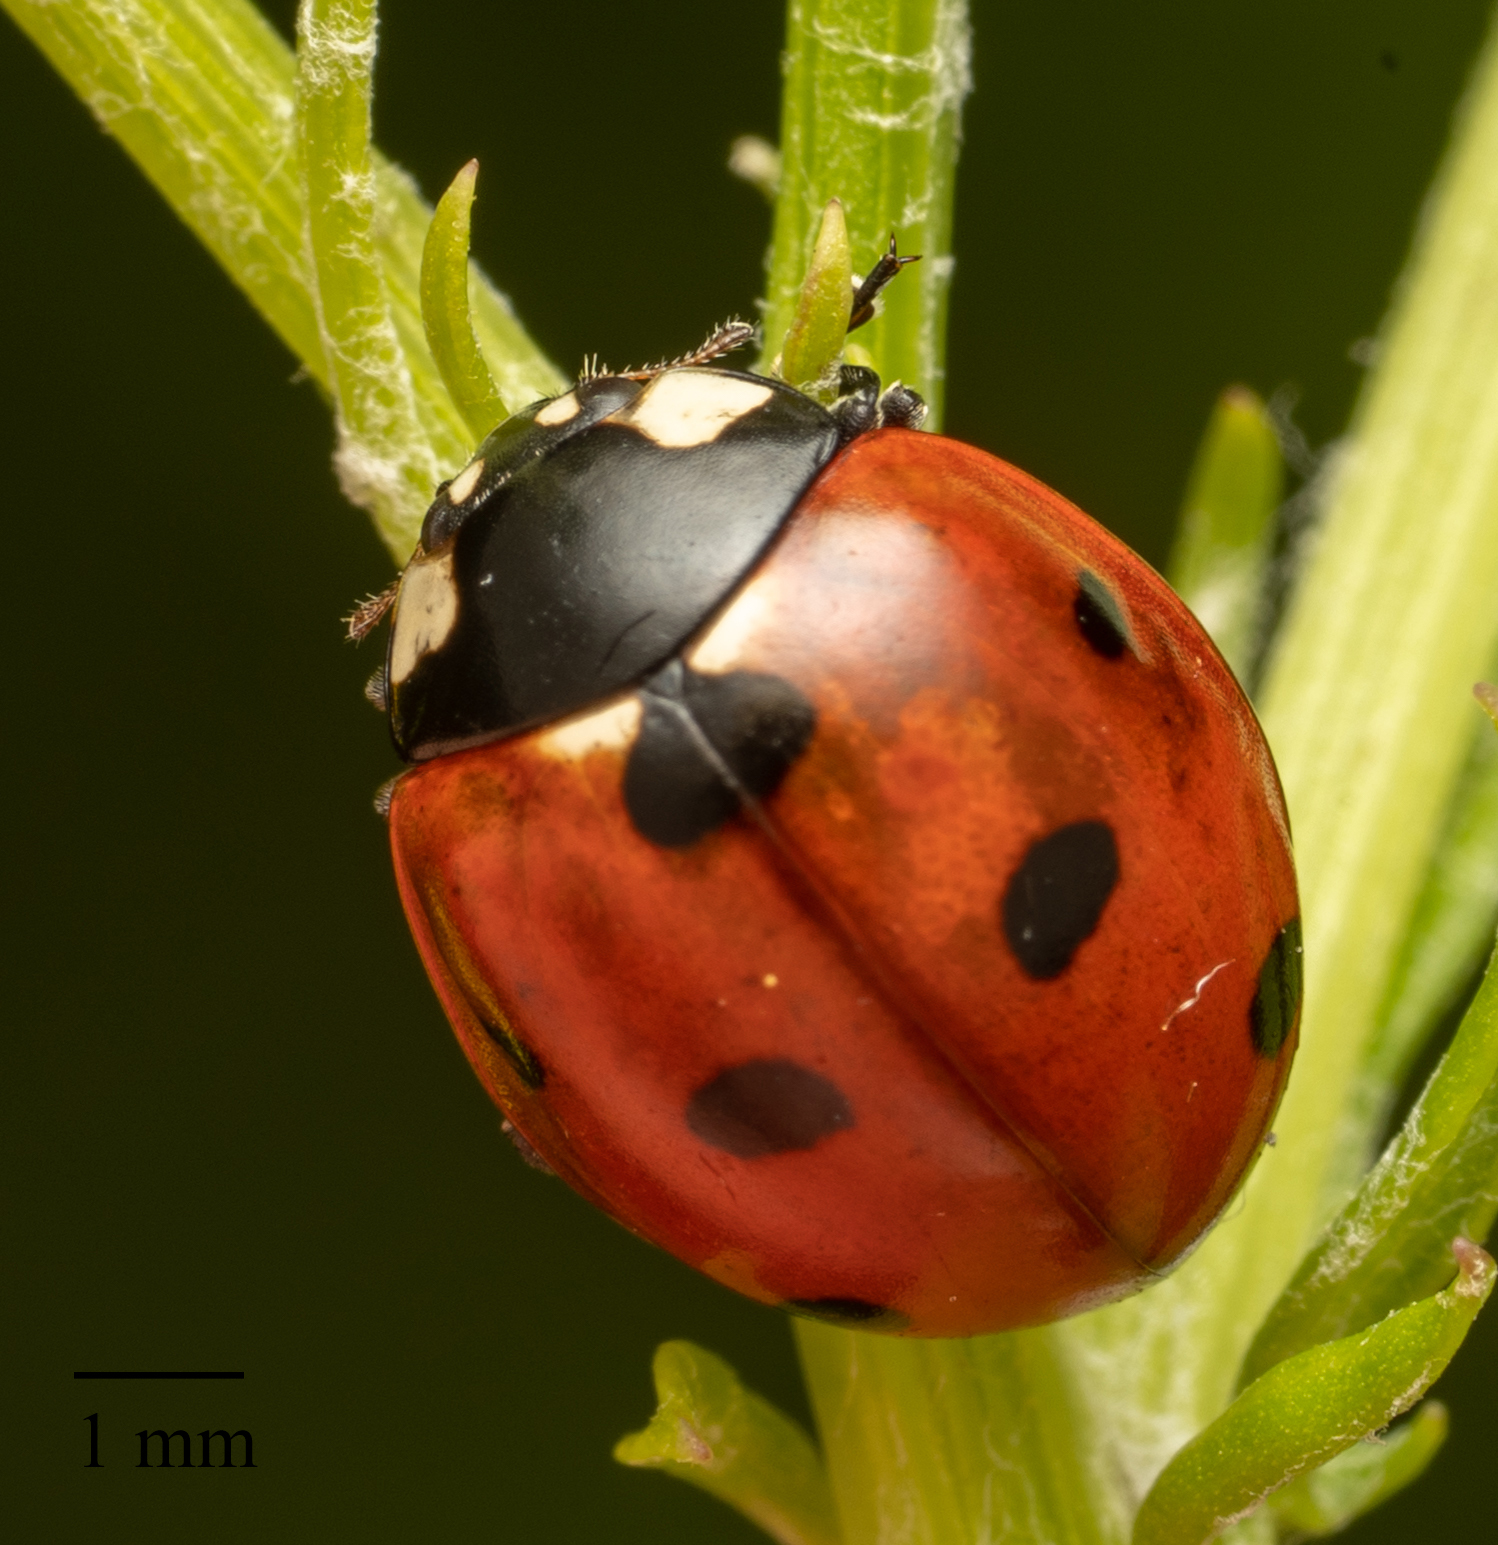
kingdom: Animalia
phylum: Arthropoda
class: Insecta
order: Coleoptera
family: Coccinellidae
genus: Coccinella
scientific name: Coccinella septempunctata
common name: Sevenspotted lady beetle
